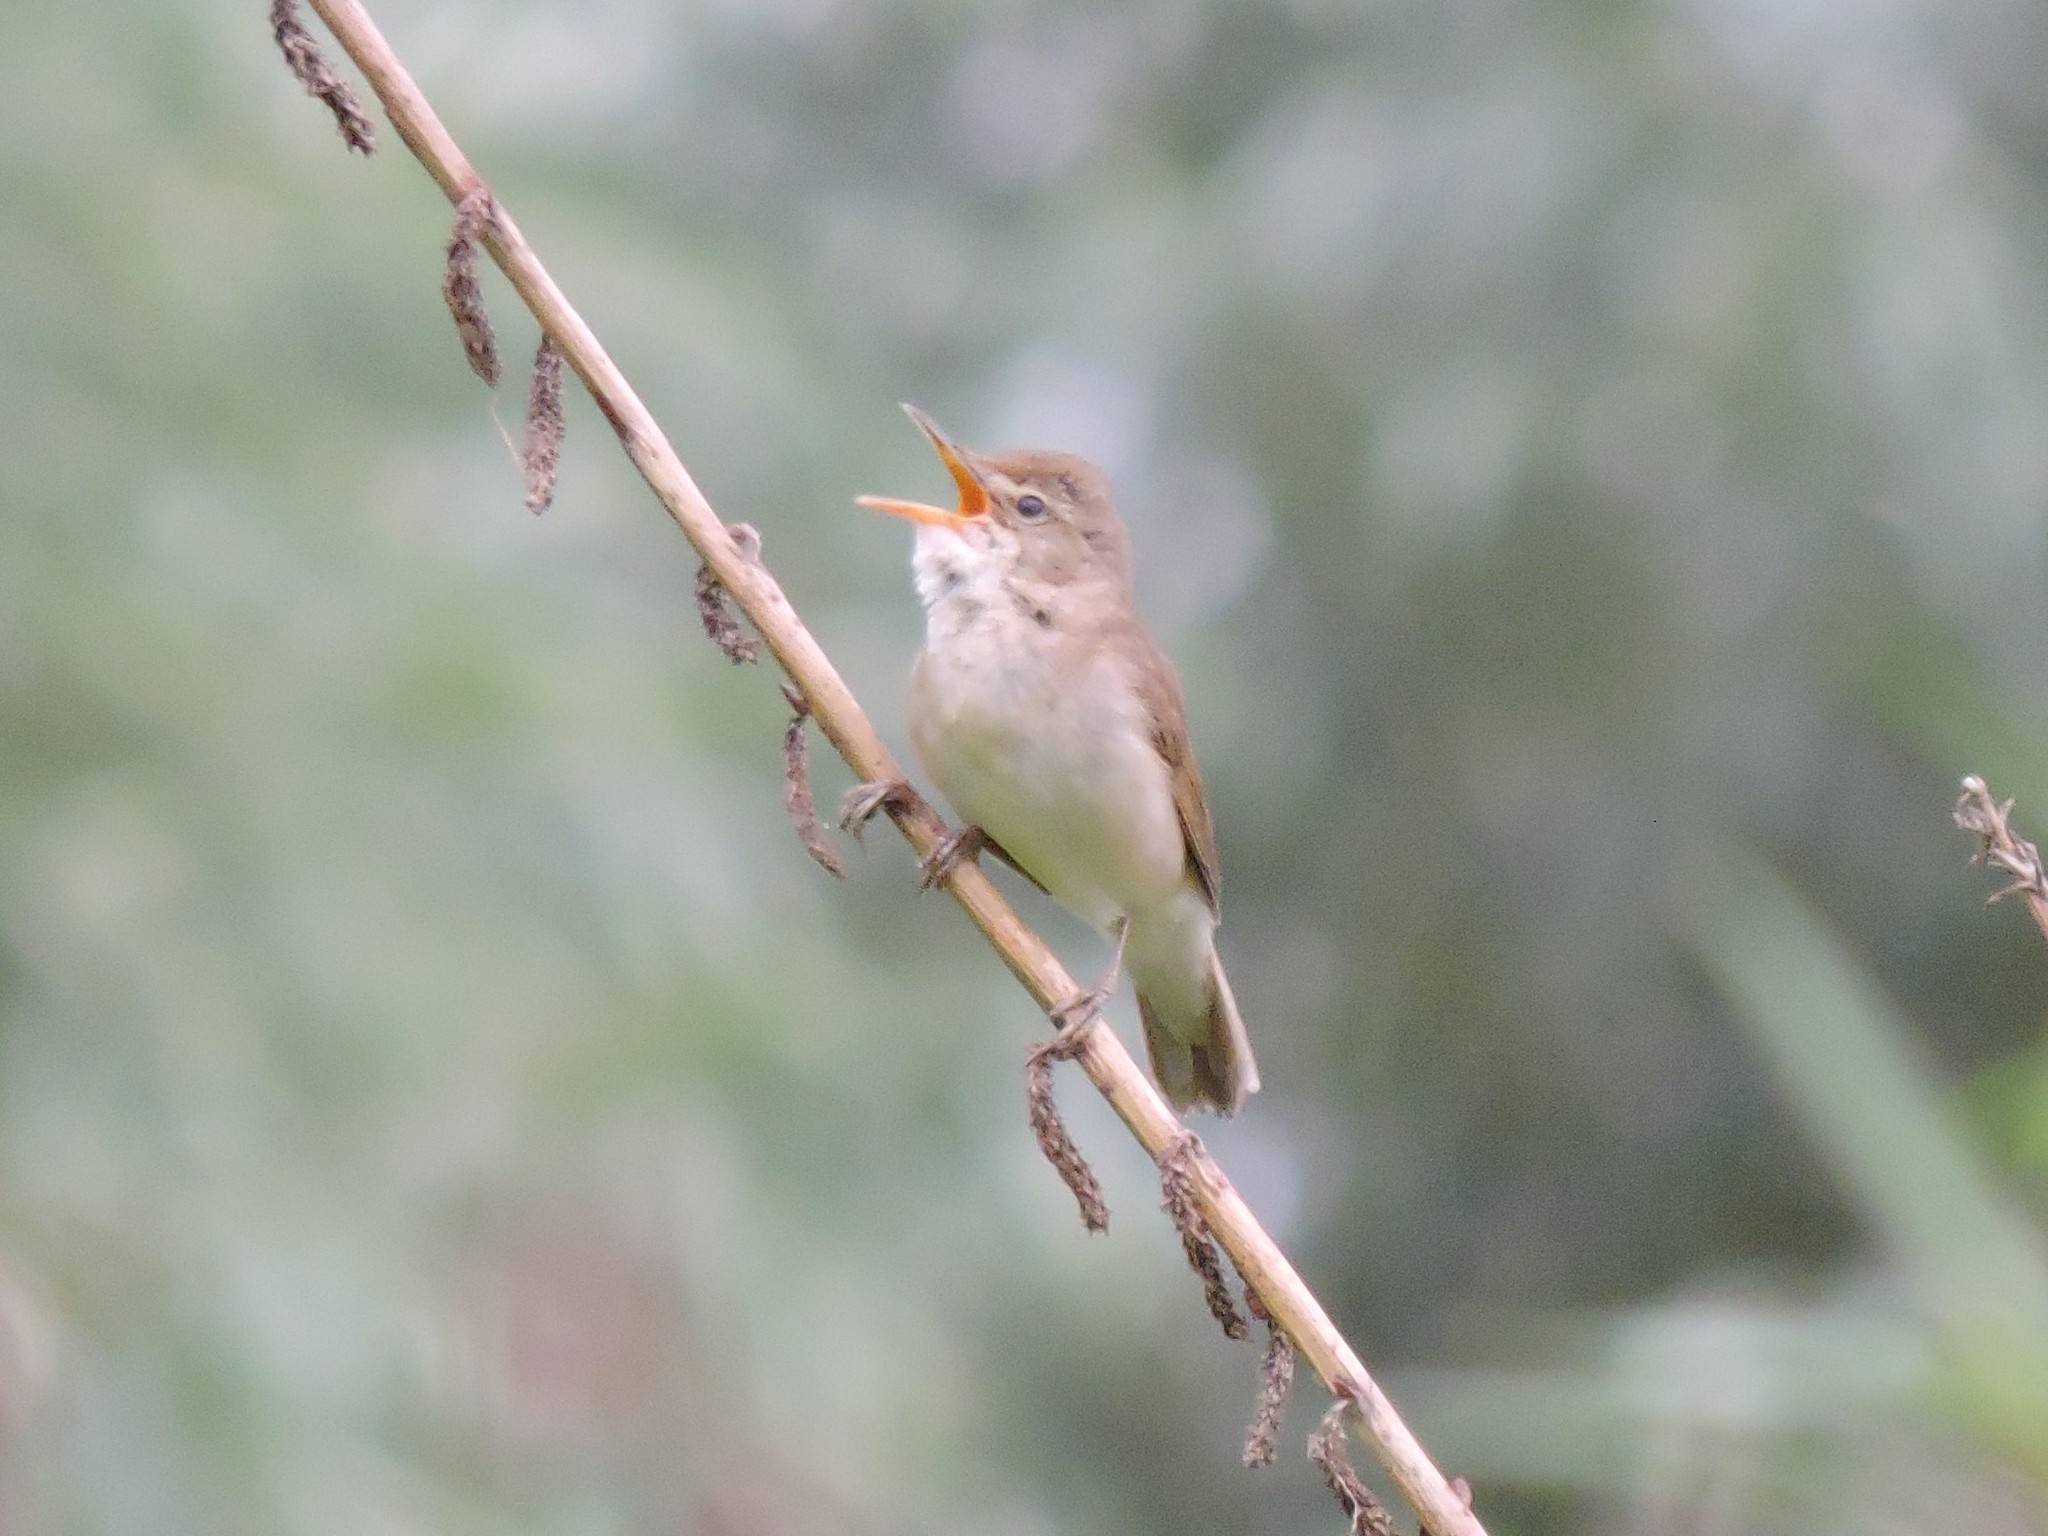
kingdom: Animalia
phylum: Chordata
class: Aves
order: Passeriformes
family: Acrocephalidae
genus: Acrocephalus
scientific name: Acrocephalus dumetorum
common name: Blyth's reed warbler
